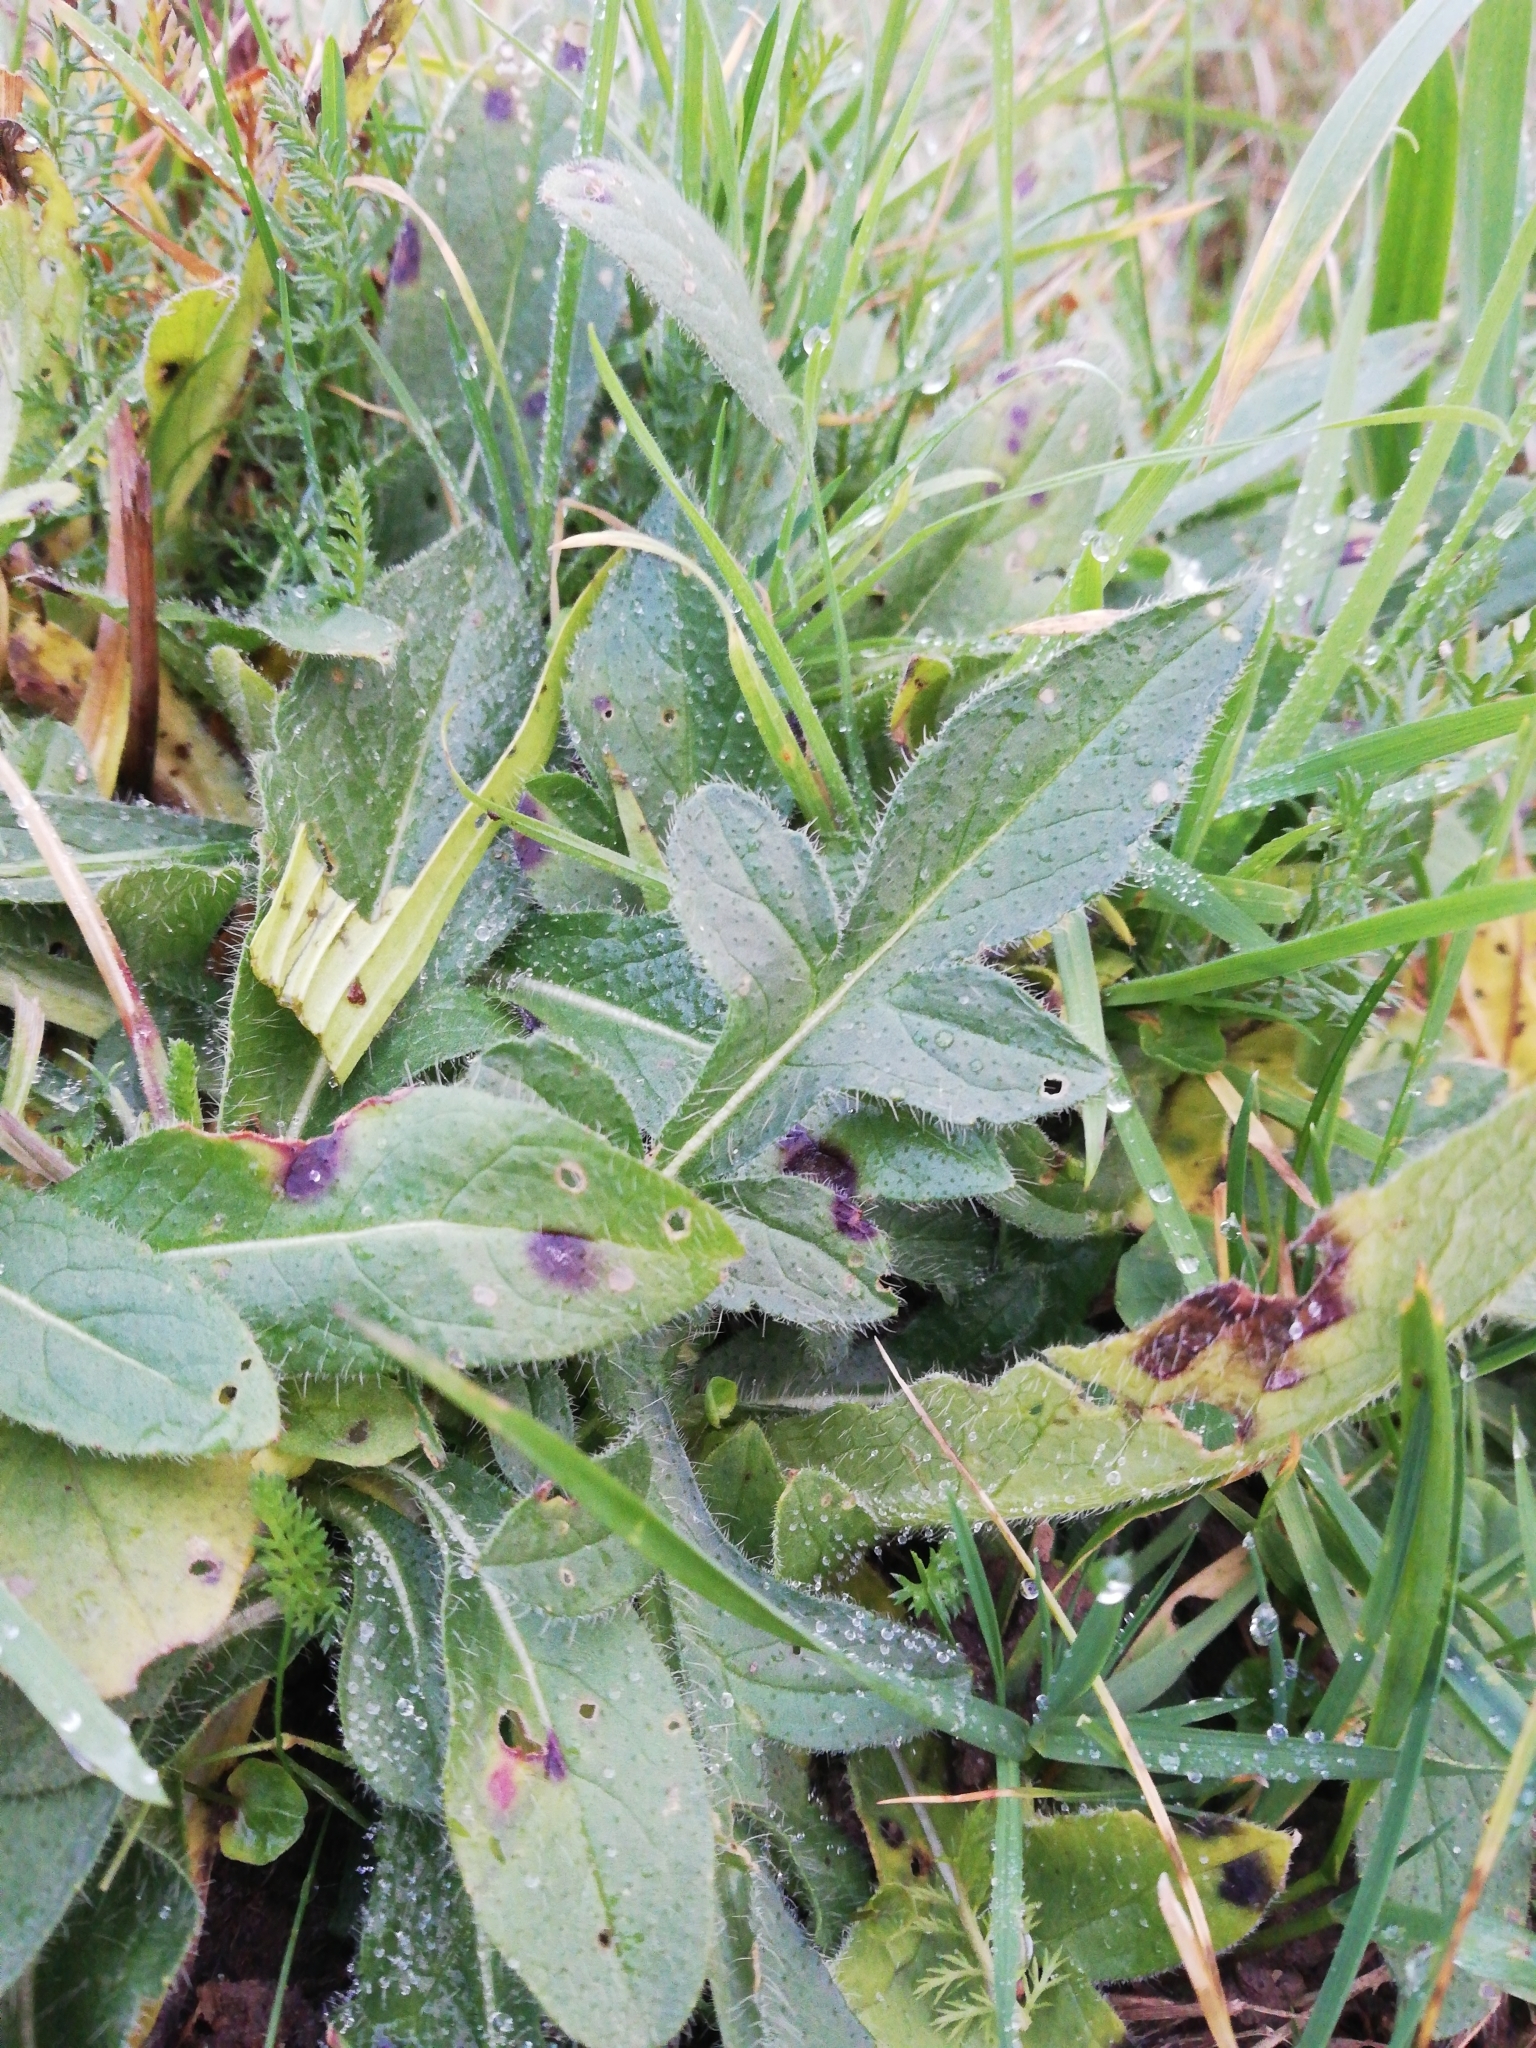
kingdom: Plantae
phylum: Tracheophyta
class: Magnoliopsida
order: Dipsacales
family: Caprifoliaceae
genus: Knautia
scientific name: Knautia arvensis
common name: Field scabiosa
